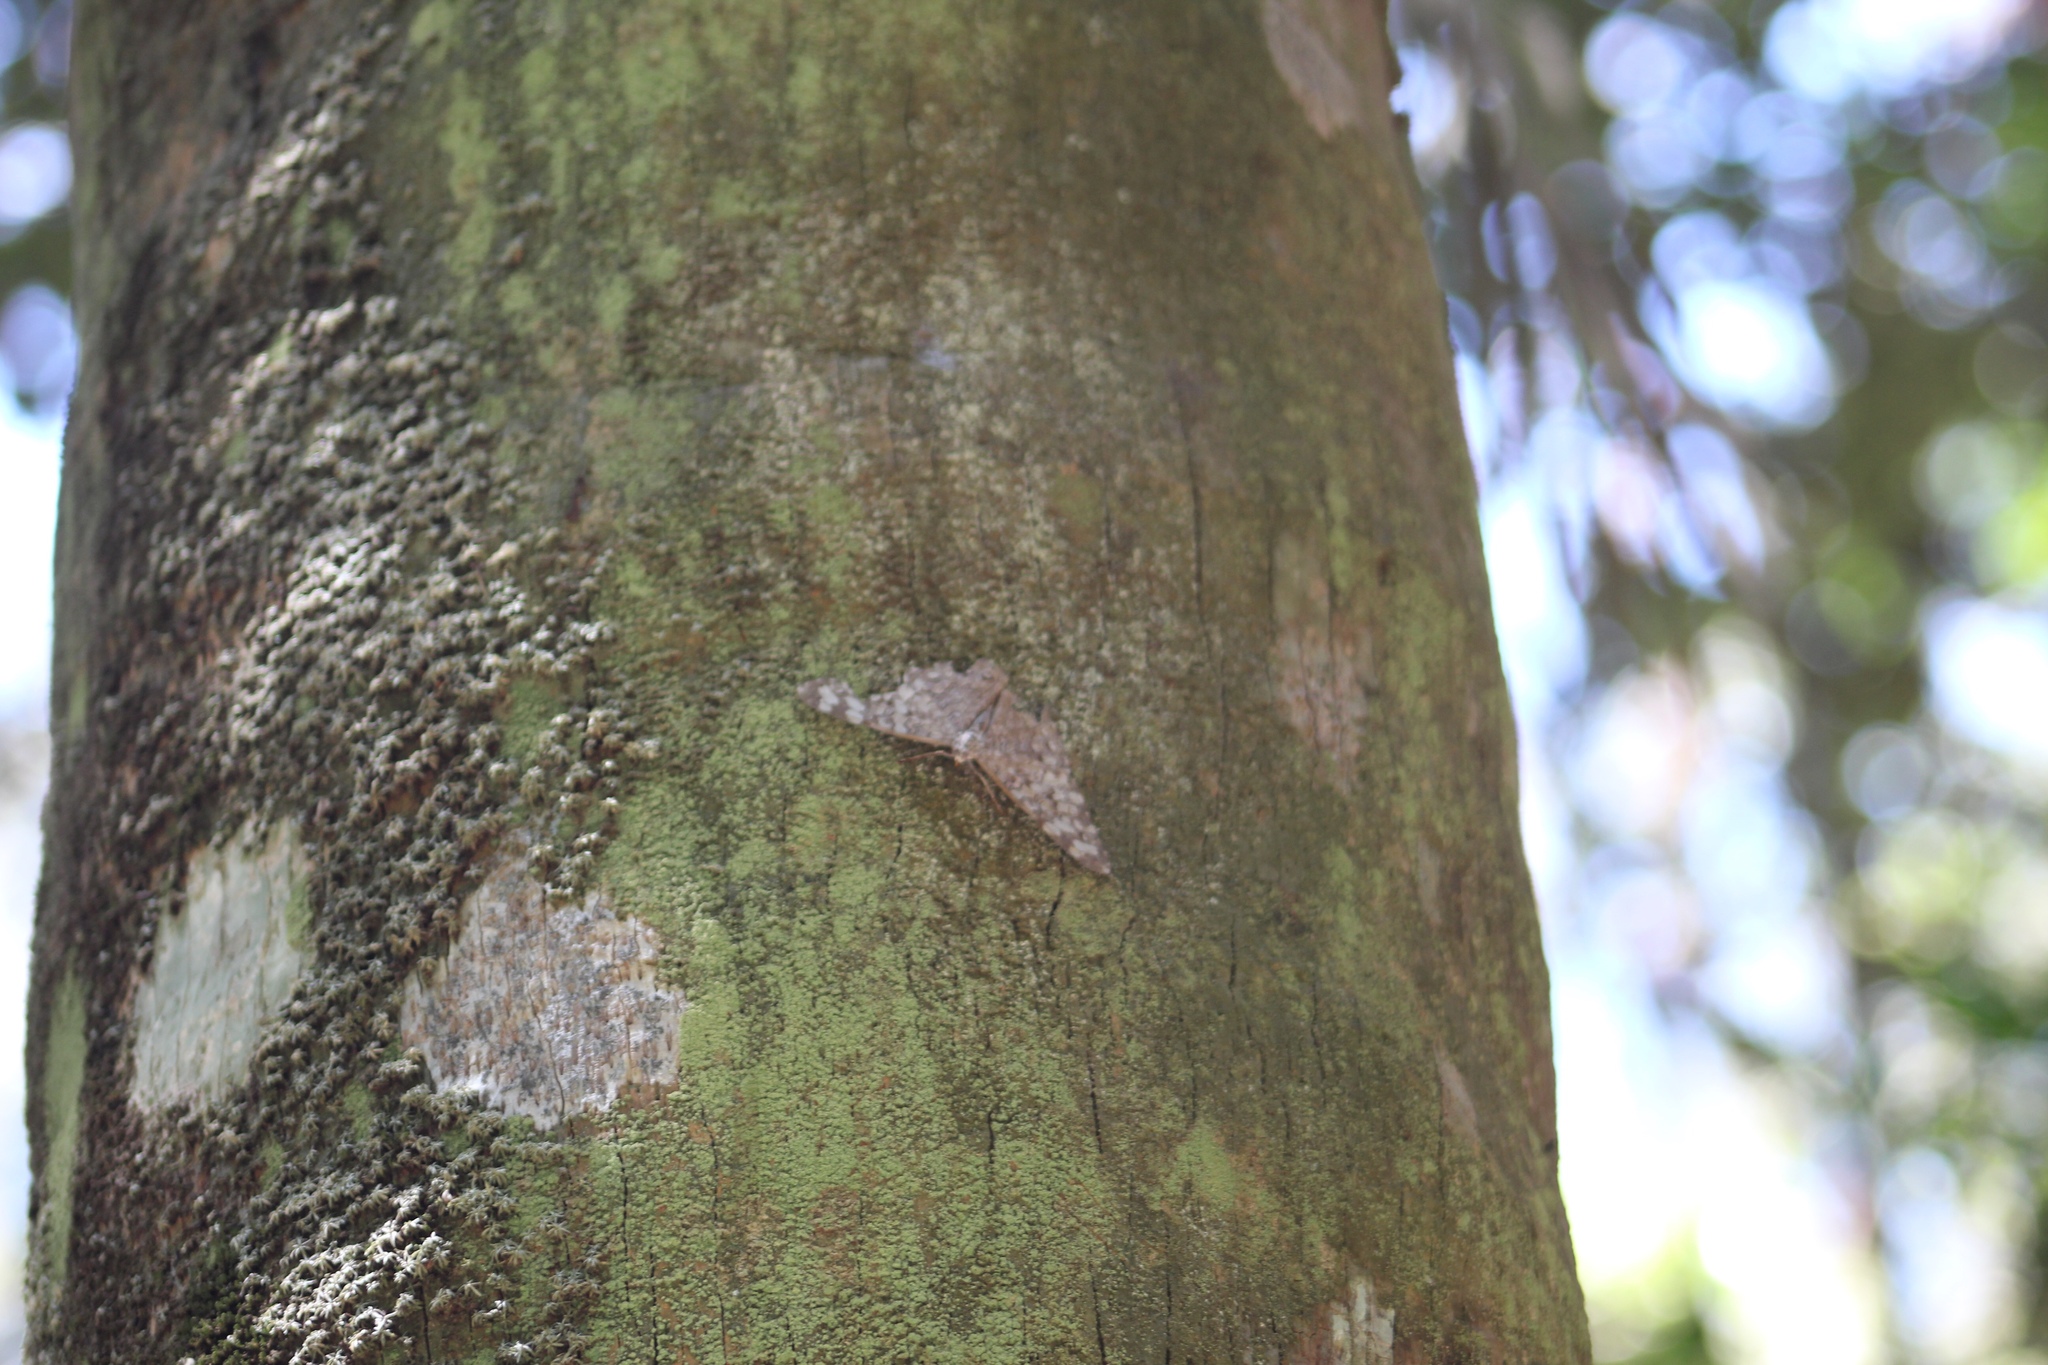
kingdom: Animalia
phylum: Arthropoda
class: Insecta
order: Lepidoptera
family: Nymphalidae
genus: Hamadryas
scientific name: Hamadryas februa
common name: Gray cracker
